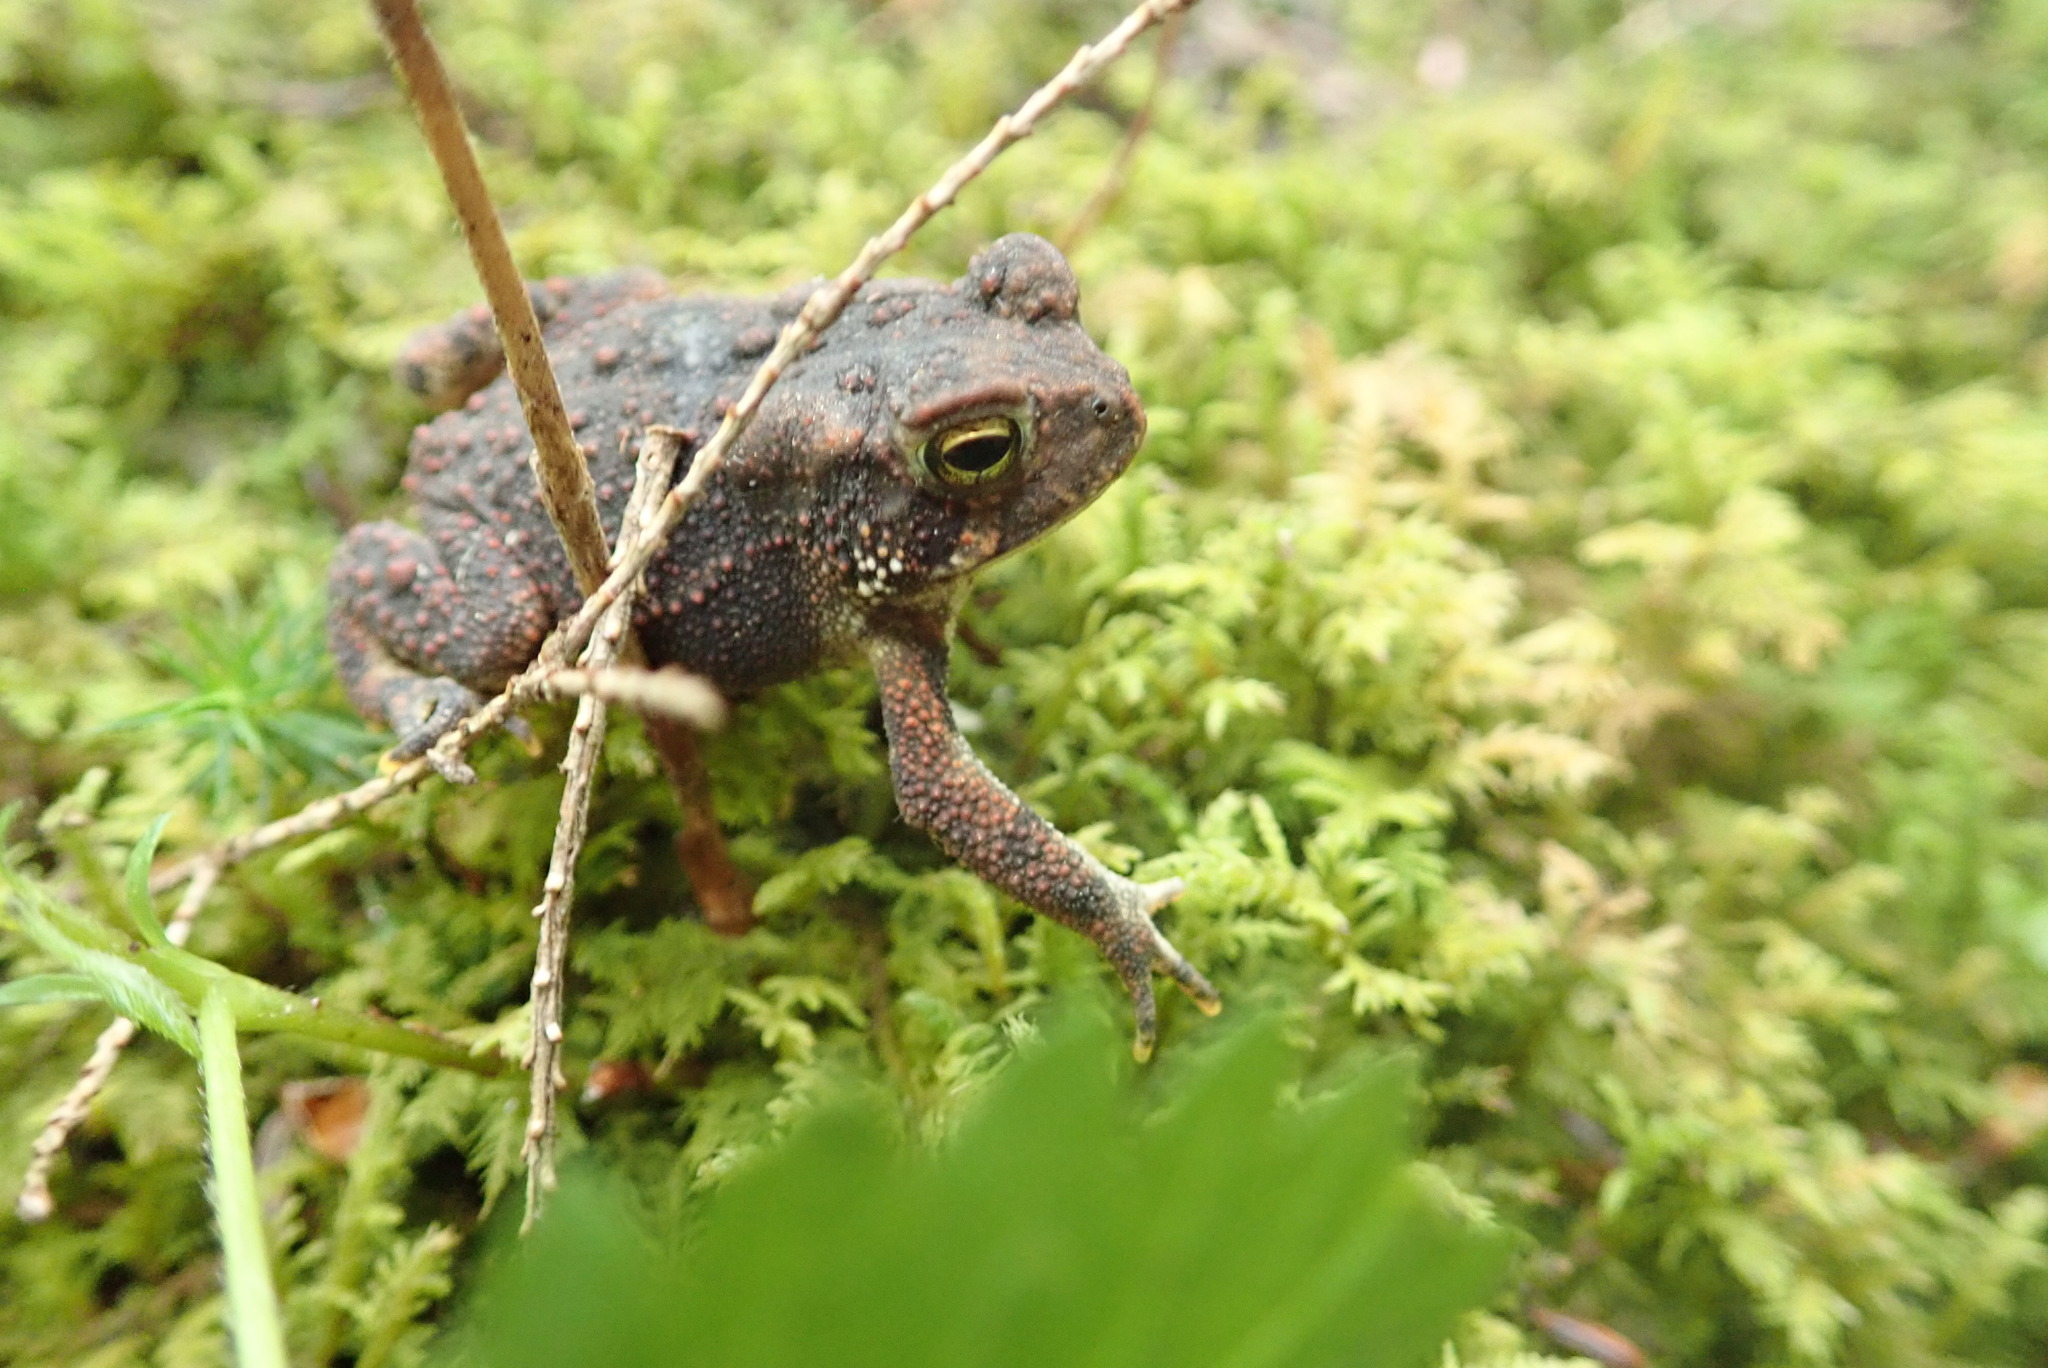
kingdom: Animalia
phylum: Chordata
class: Amphibia
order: Anura
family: Bufonidae
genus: Anaxyrus
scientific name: Anaxyrus americanus
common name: American toad
